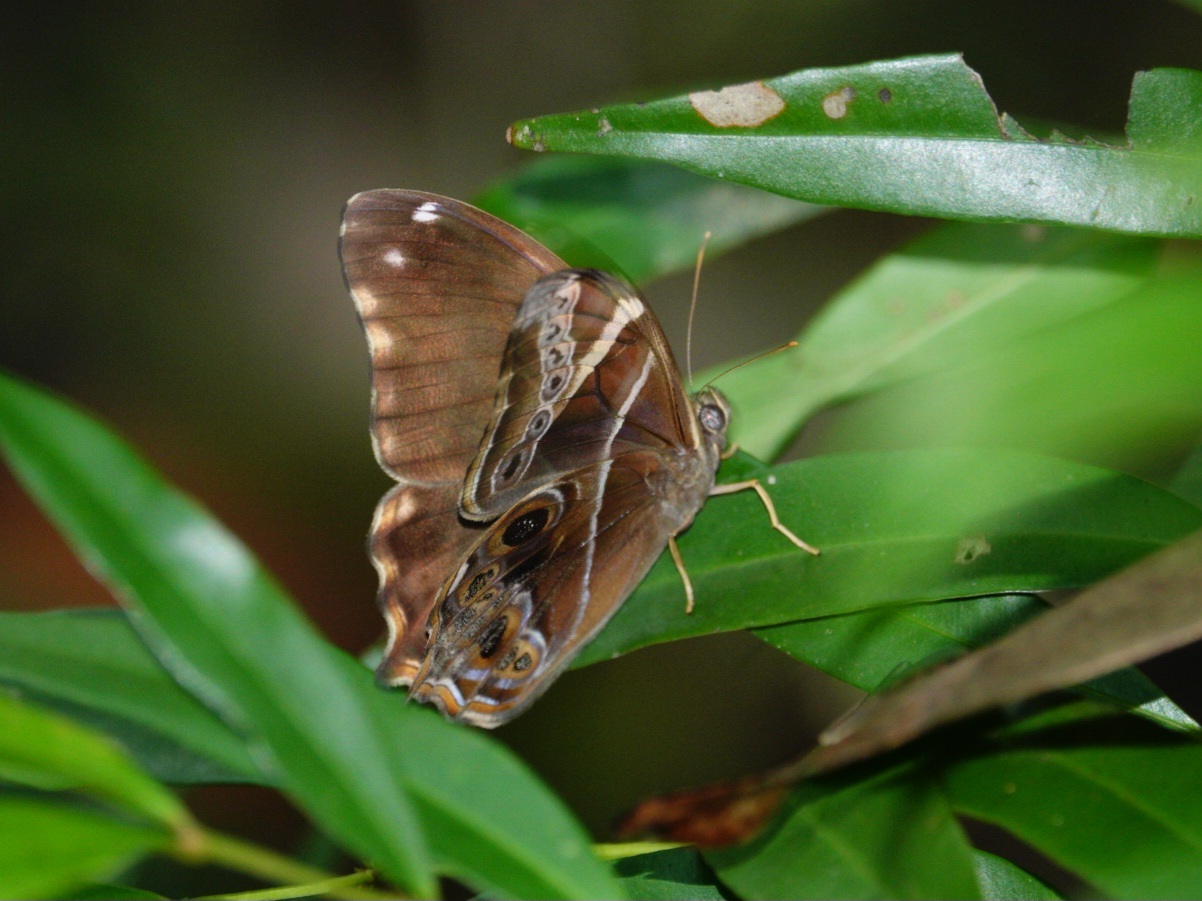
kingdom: Animalia
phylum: Arthropoda
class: Insecta
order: Lepidoptera
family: Nymphalidae
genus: Lethe
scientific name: Lethe europa
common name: Bamboo treebrown
